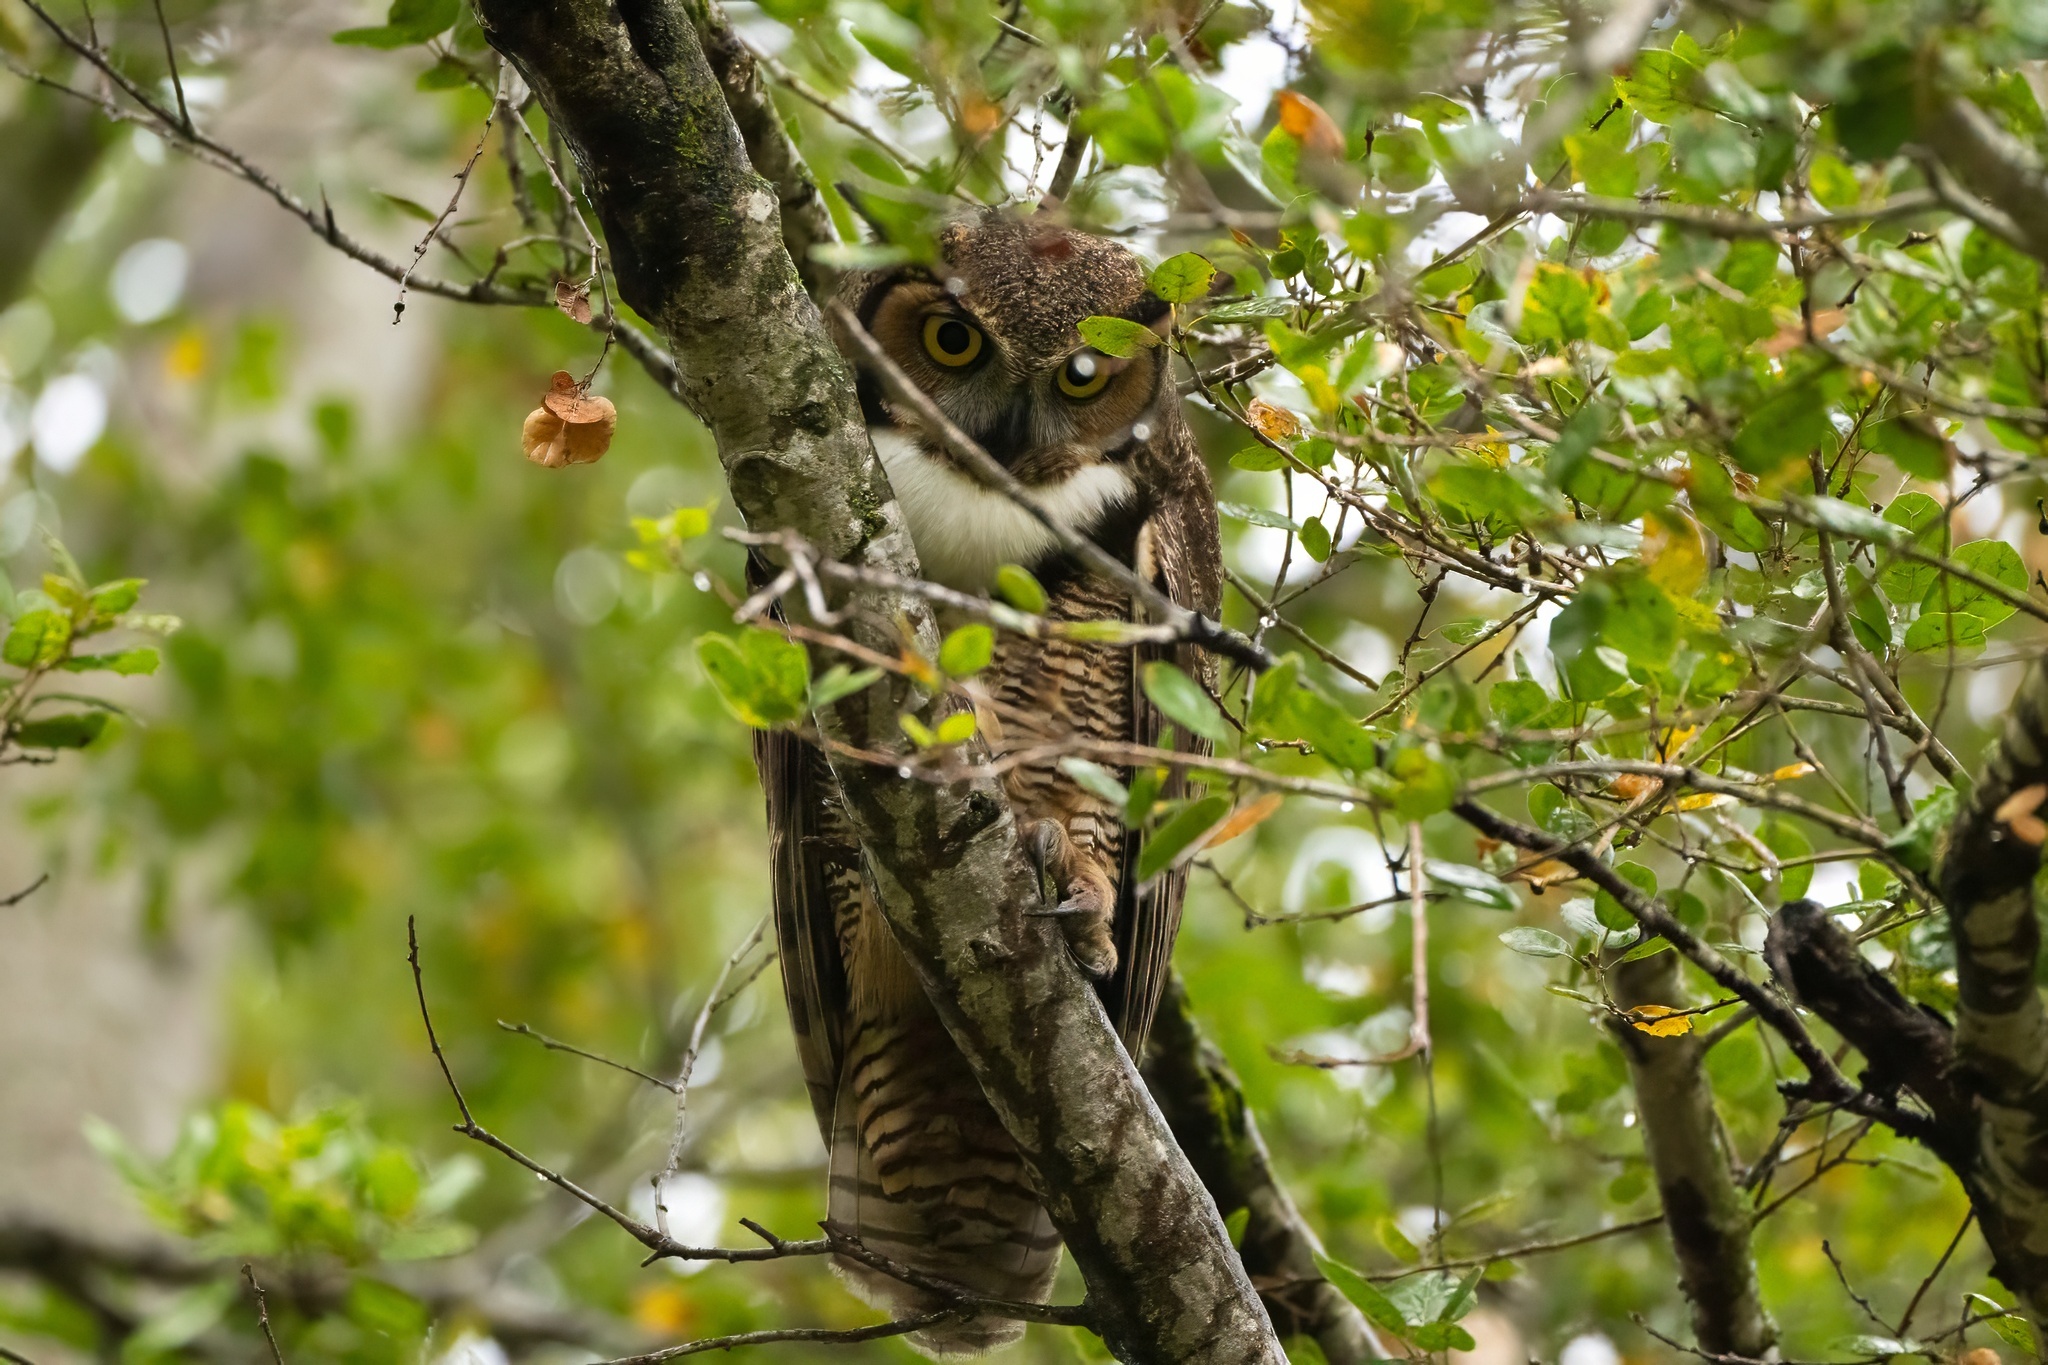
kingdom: Animalia
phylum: Chordata
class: Aves
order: Strigiformes
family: Strigidae
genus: Bubo
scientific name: Bubo virginianus
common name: Great horned owl
